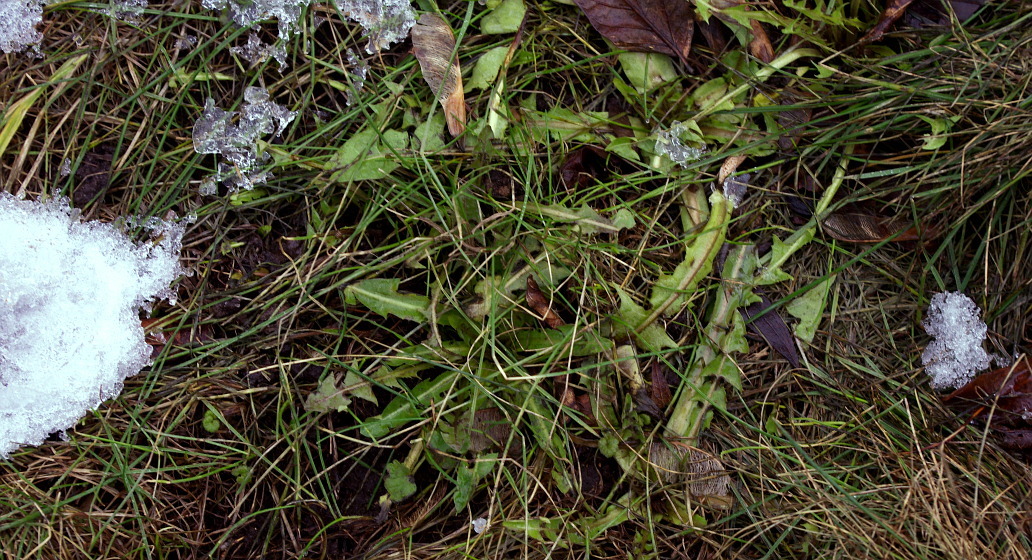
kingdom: Plantae
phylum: Tracheophyta
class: Magnoliopsida
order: Asterales
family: Asteraceae
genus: Taraxacum
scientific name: Taraxacum officinale
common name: Common dandelion
